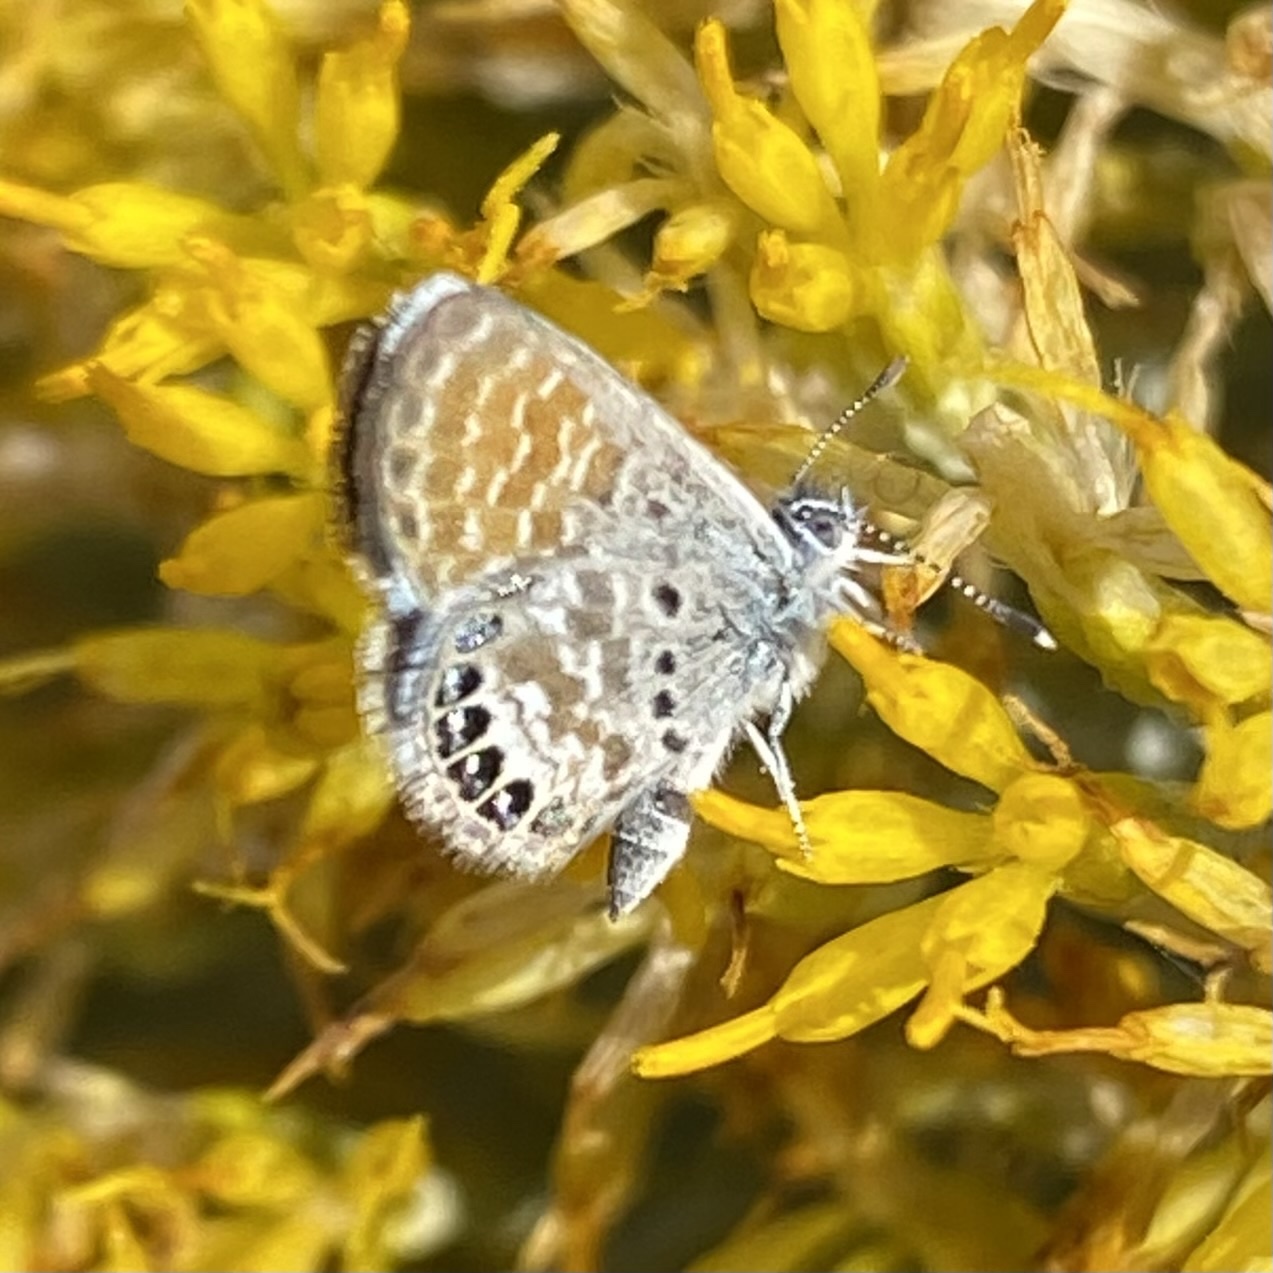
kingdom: Animalia
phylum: Arthropoda
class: Insecta
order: Lepidoptera
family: Lycaenidae
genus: Brephidium
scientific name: Brephidium exilis
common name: Pygmy blue
